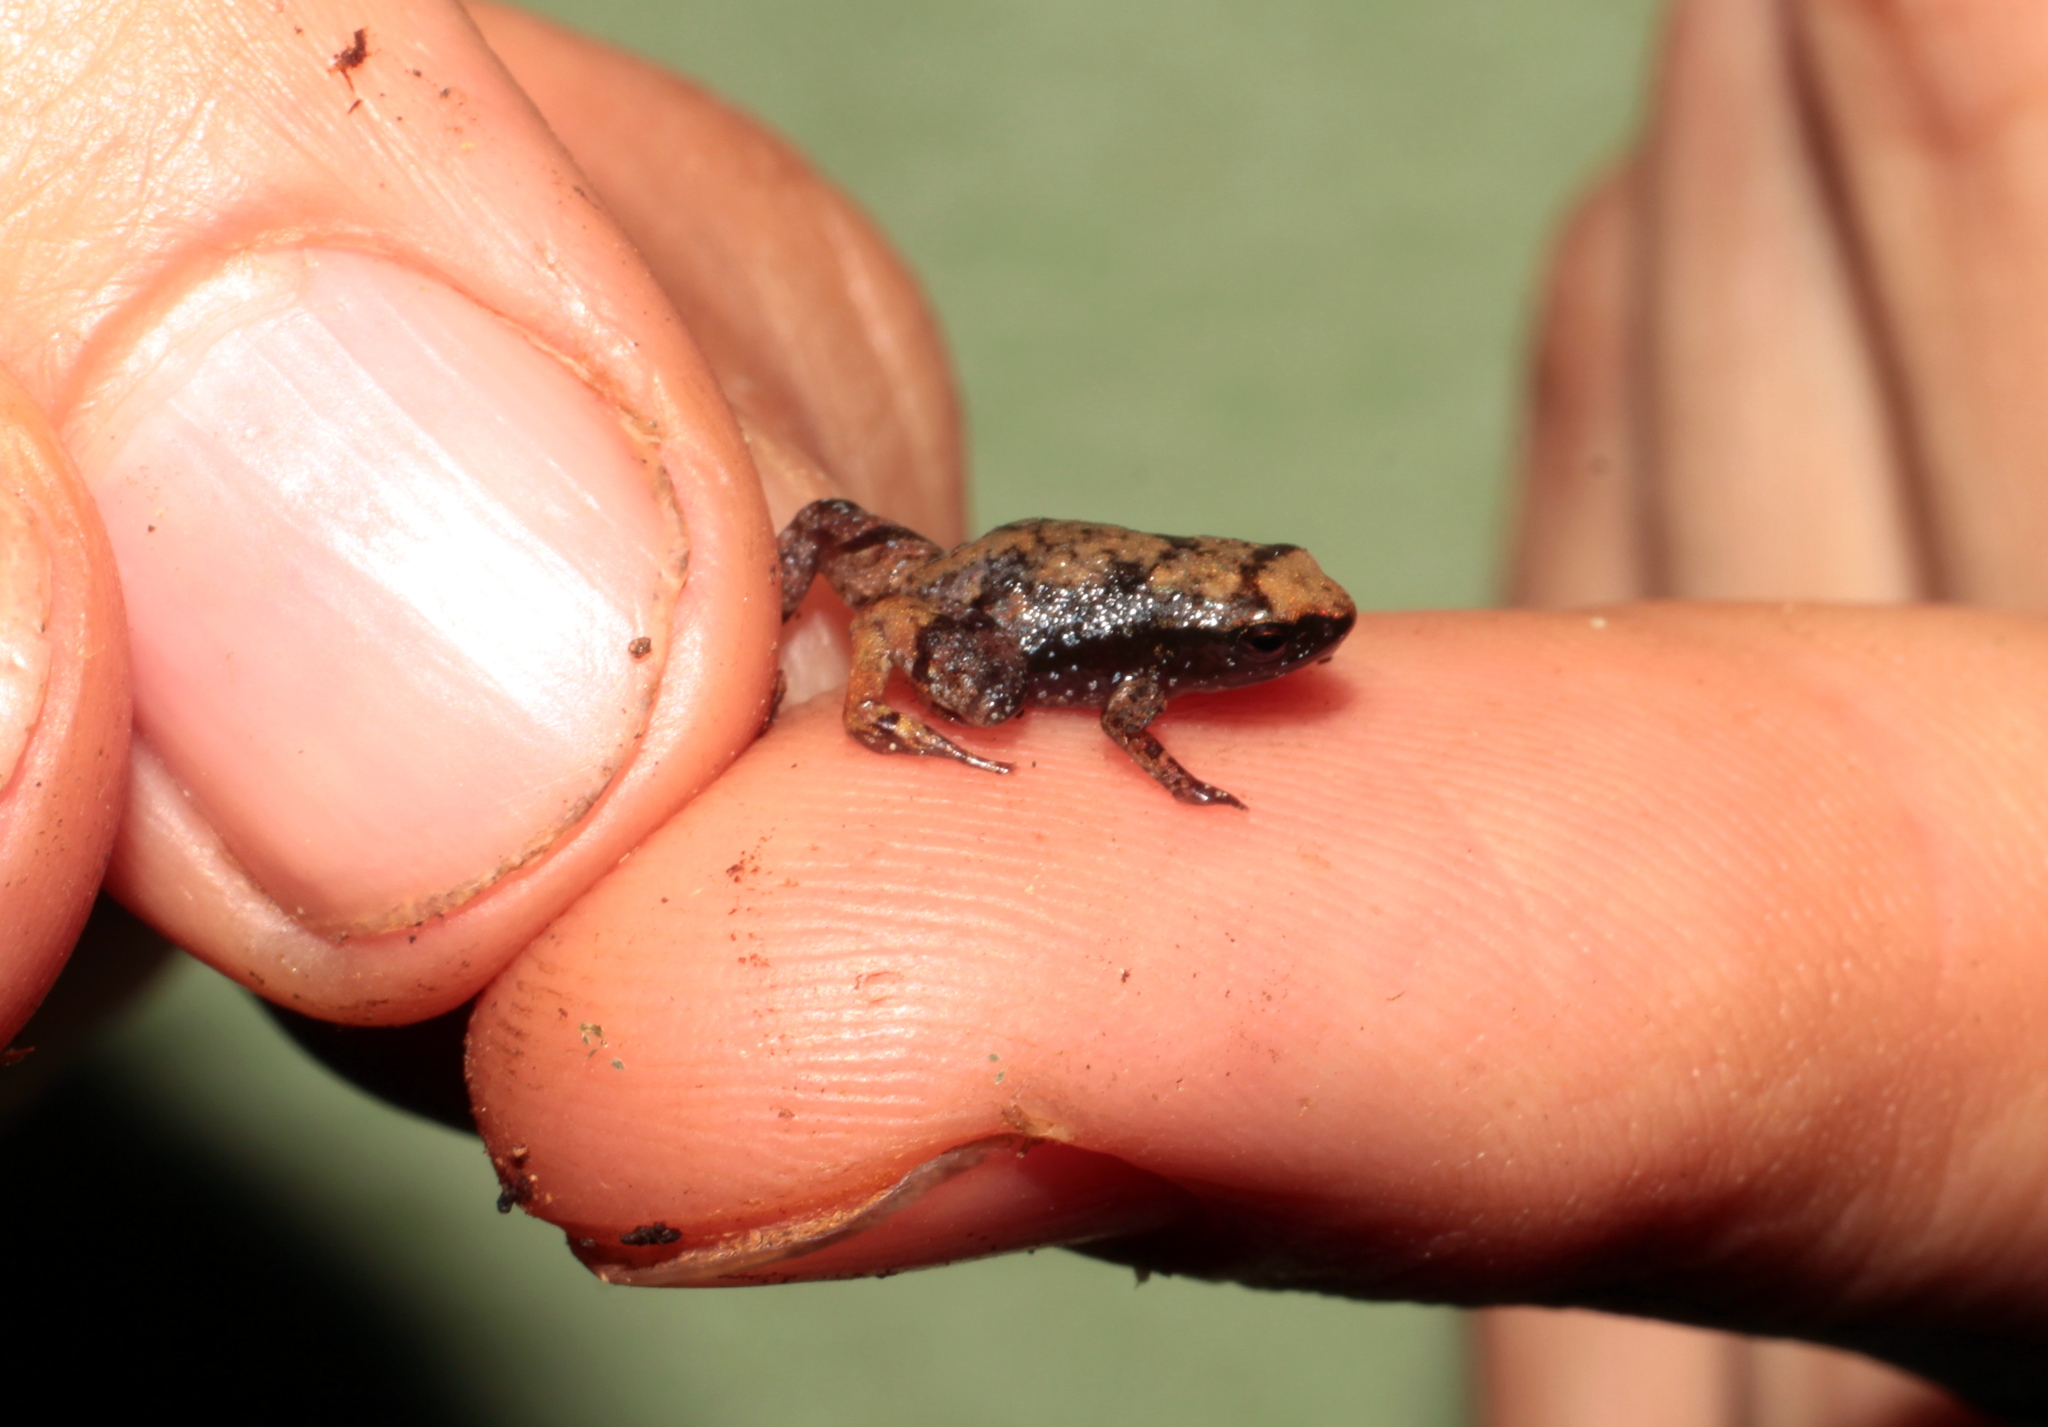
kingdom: Animalia
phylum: Chordata
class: Amphibia
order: Anura
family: Microhylidae
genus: Stumpffia
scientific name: Stumpffia obscoena
